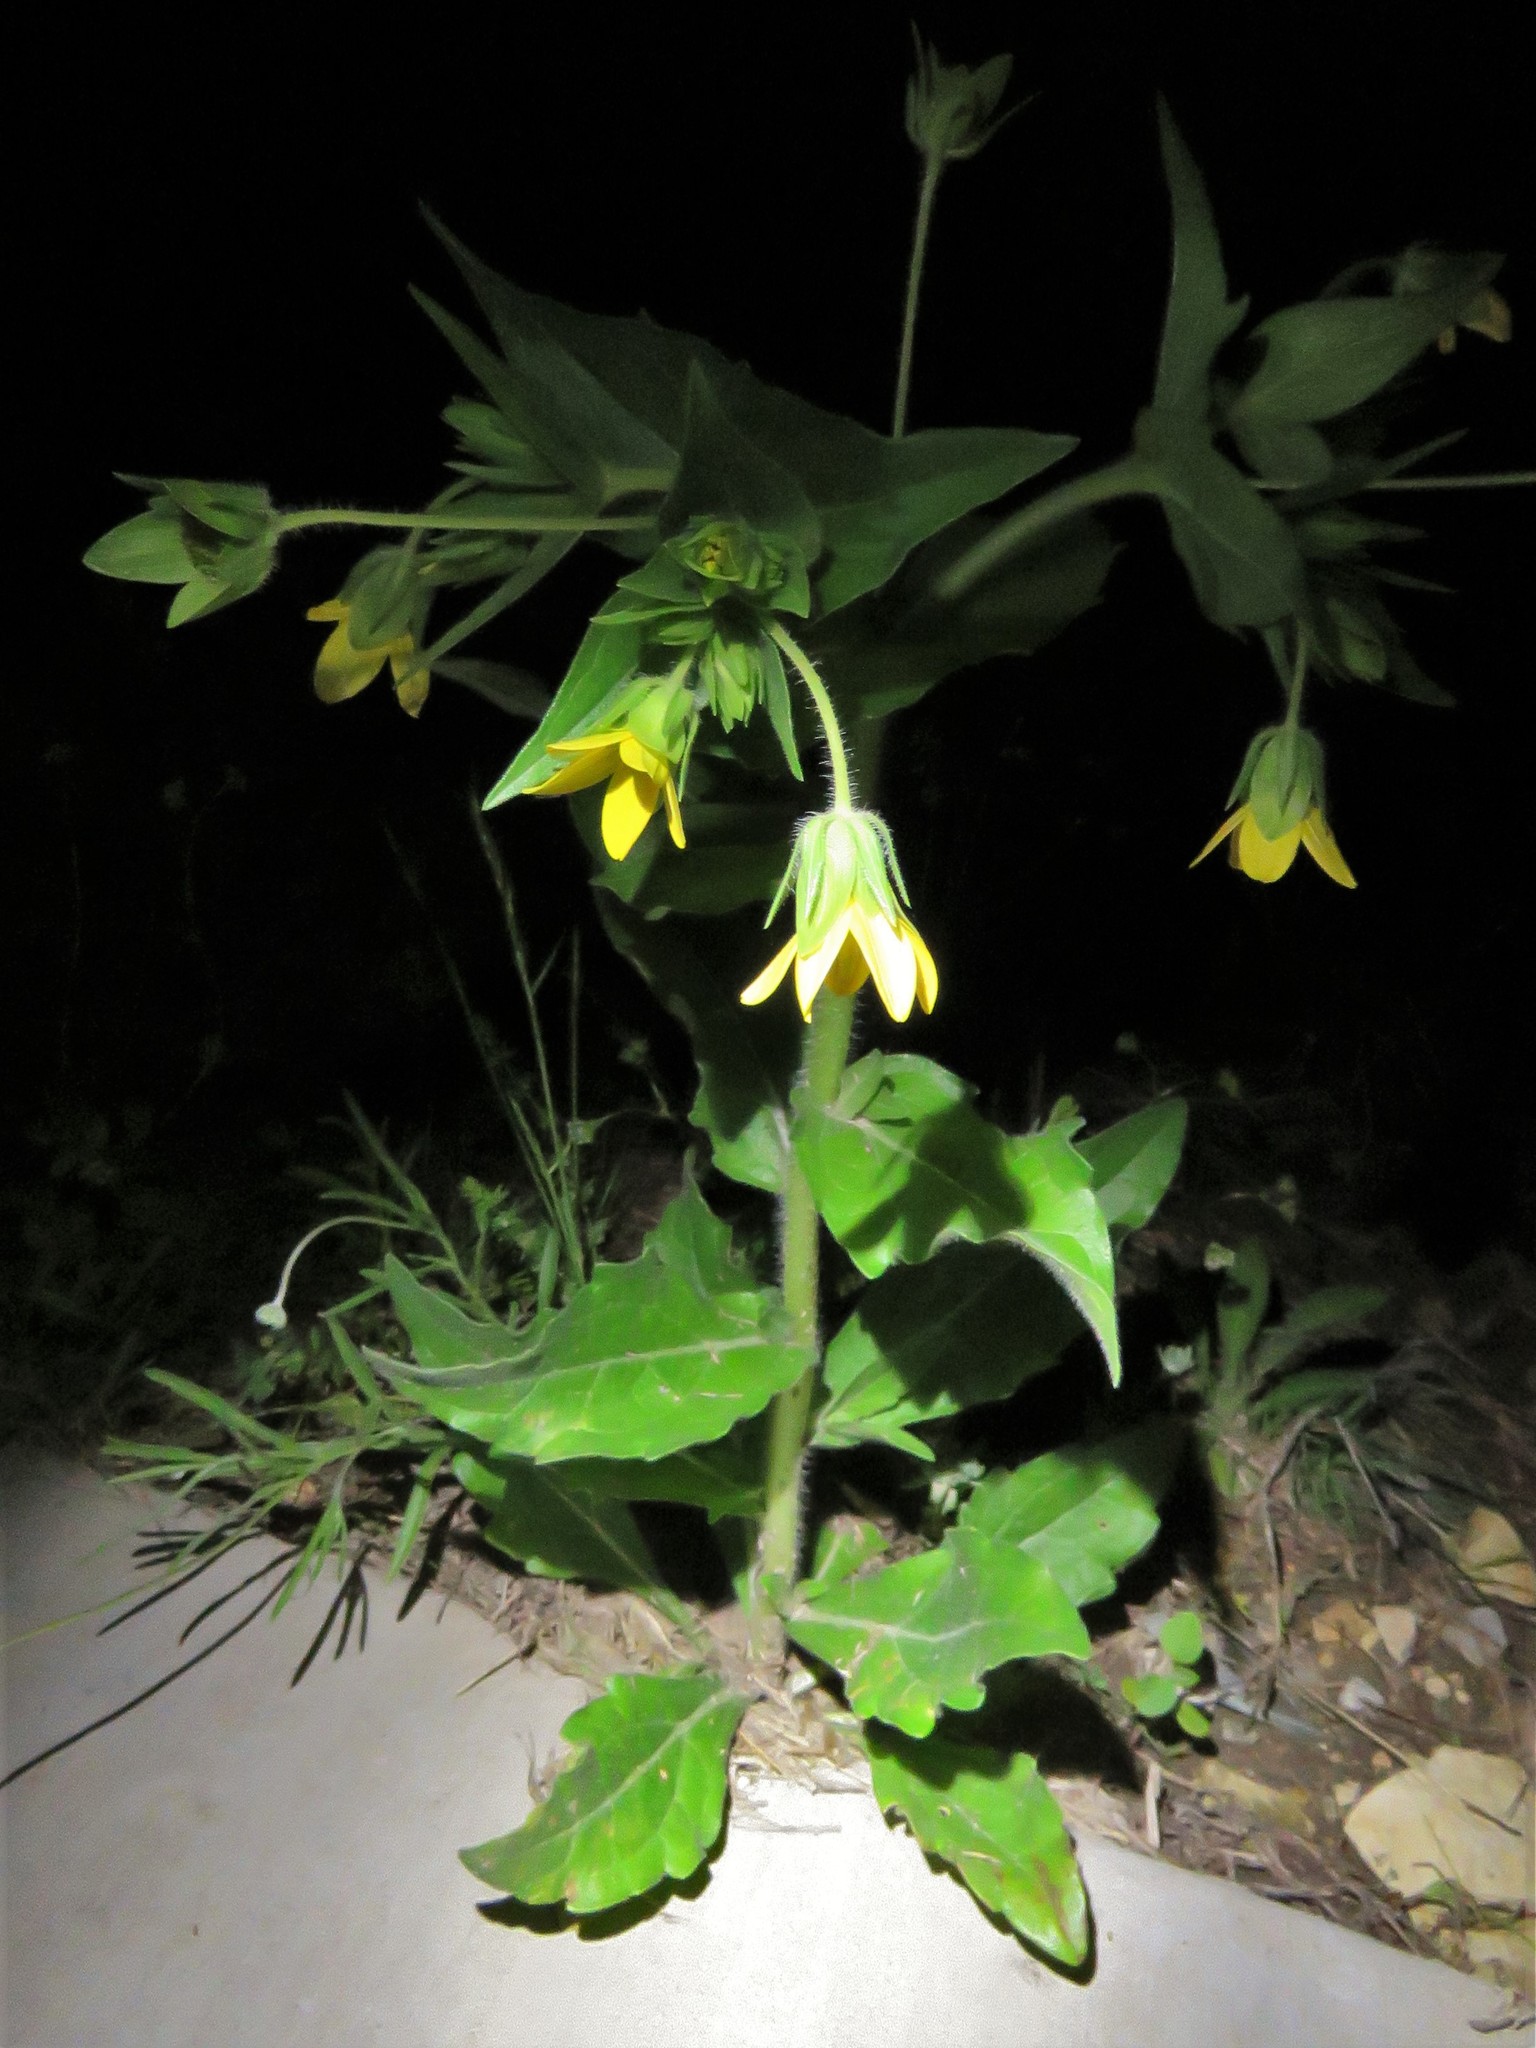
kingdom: Plantae
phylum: Tracheophyta
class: Magnoliopsida
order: Asterales
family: Asteraceae
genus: Lindheimera
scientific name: Lindheimera texana
